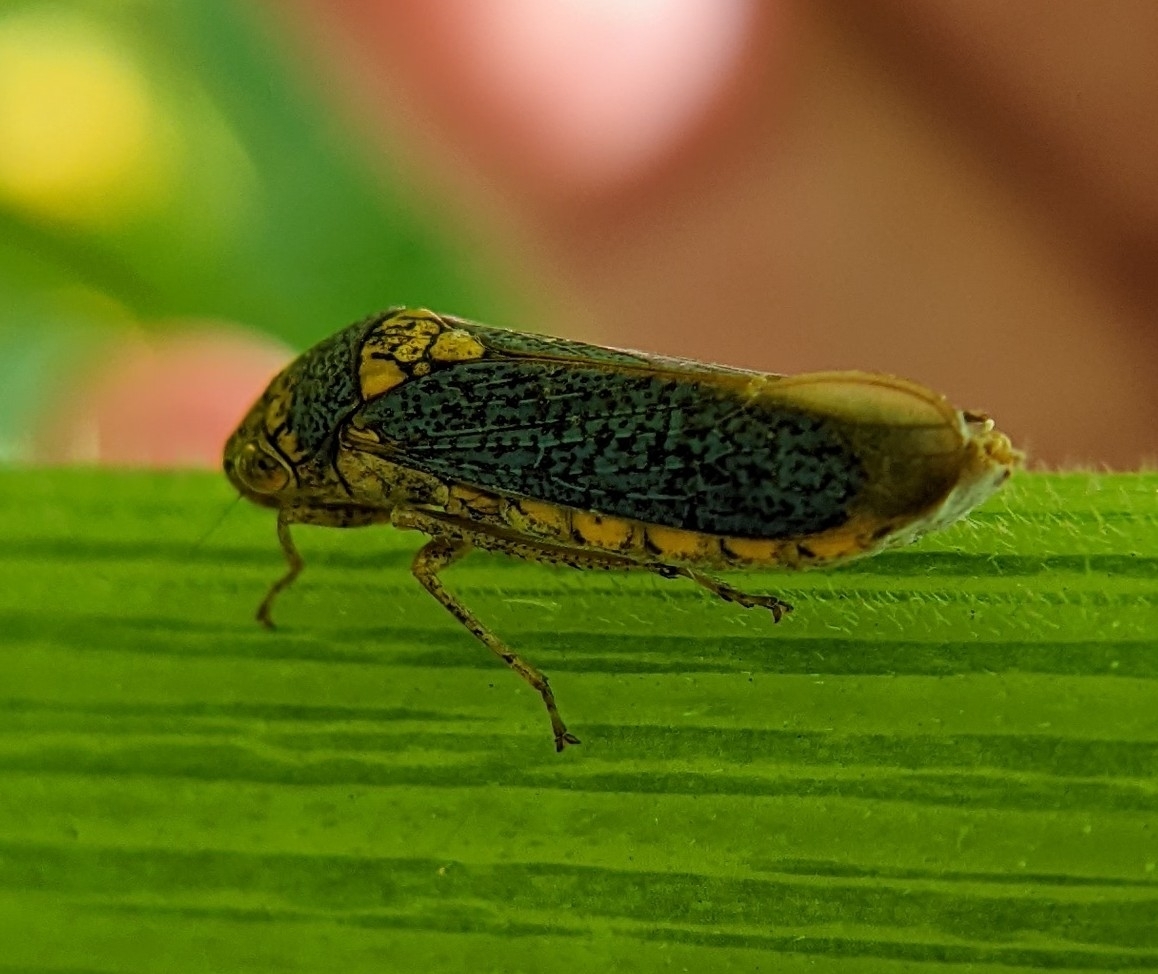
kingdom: Animalia
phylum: Arthropoda
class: Insecta
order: Hemiptera
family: Cicadellidae
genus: Oncometopia
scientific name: Oncometopia orbona
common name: Broad-headed sharpshooter
